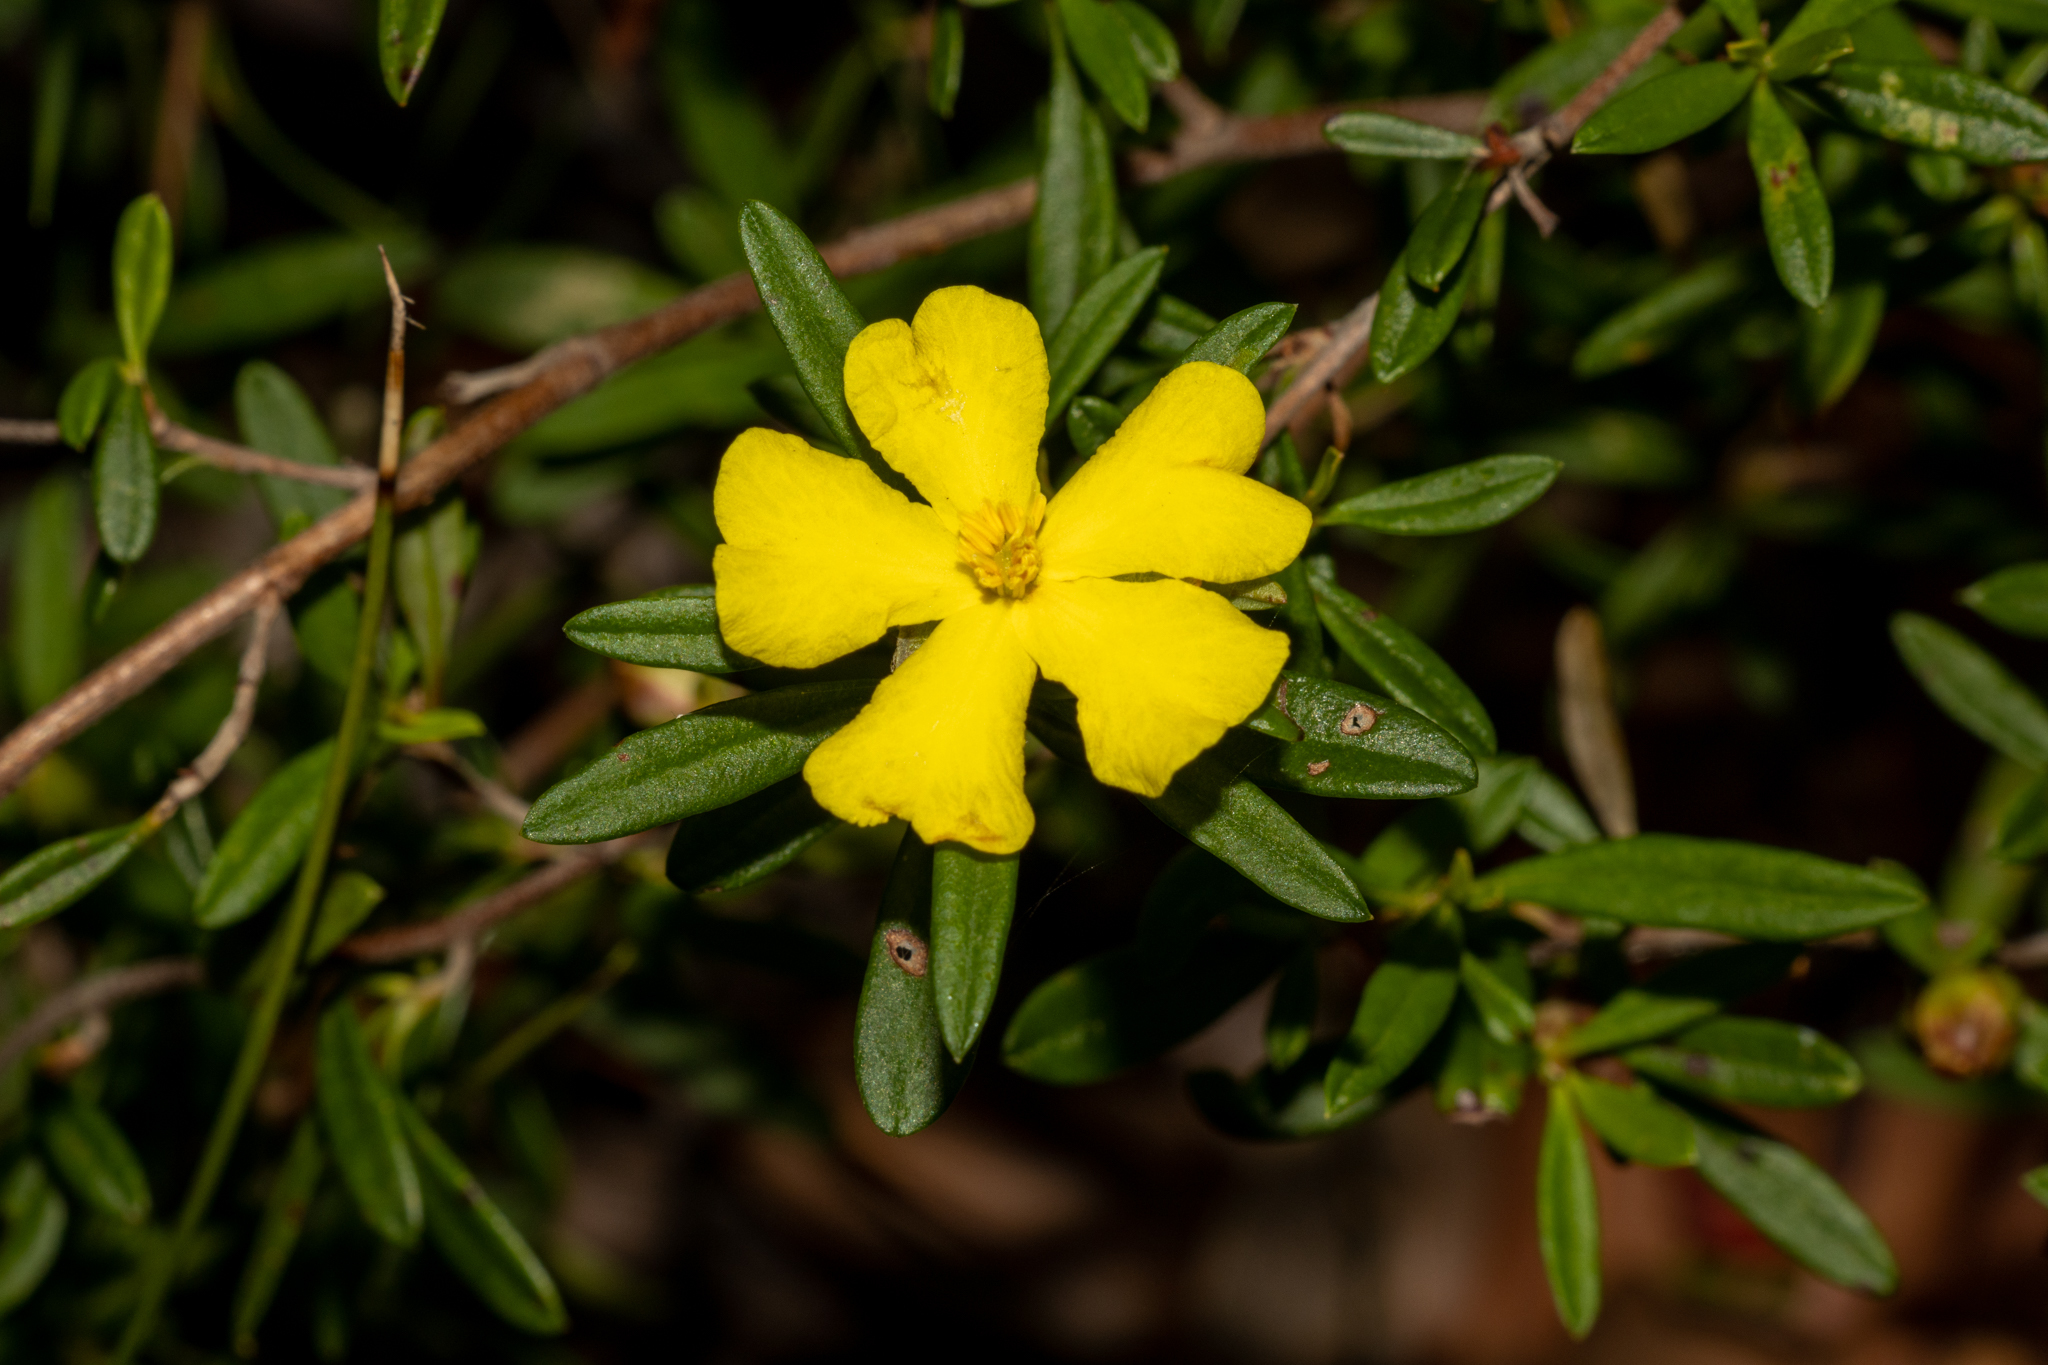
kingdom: Plantae
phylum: Tracheophyta
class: Magnoliopsida
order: Dilleniales
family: Dilleniaceae
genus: Hibbertia
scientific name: Hibbertia linearis
